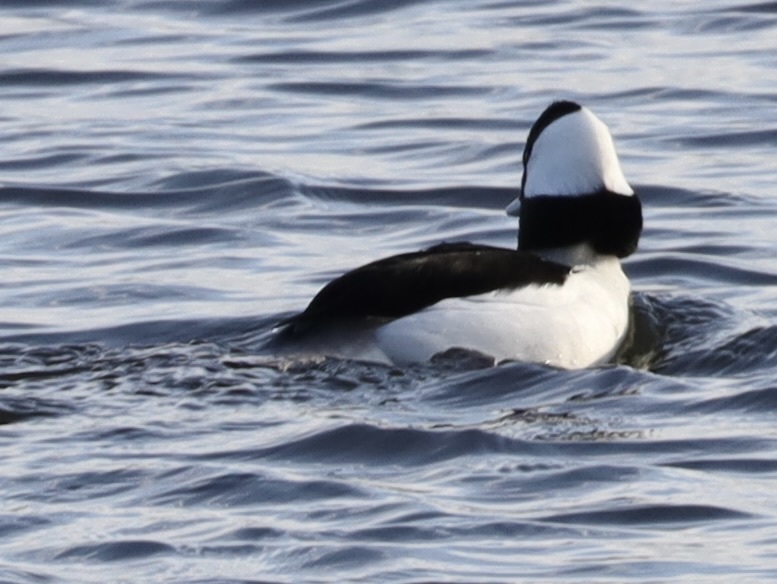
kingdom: Animalia
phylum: Chordata
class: Aves
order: Anseriformes
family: Anatidae
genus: Bucephala
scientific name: Bucephala albeola
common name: Bufflehead
